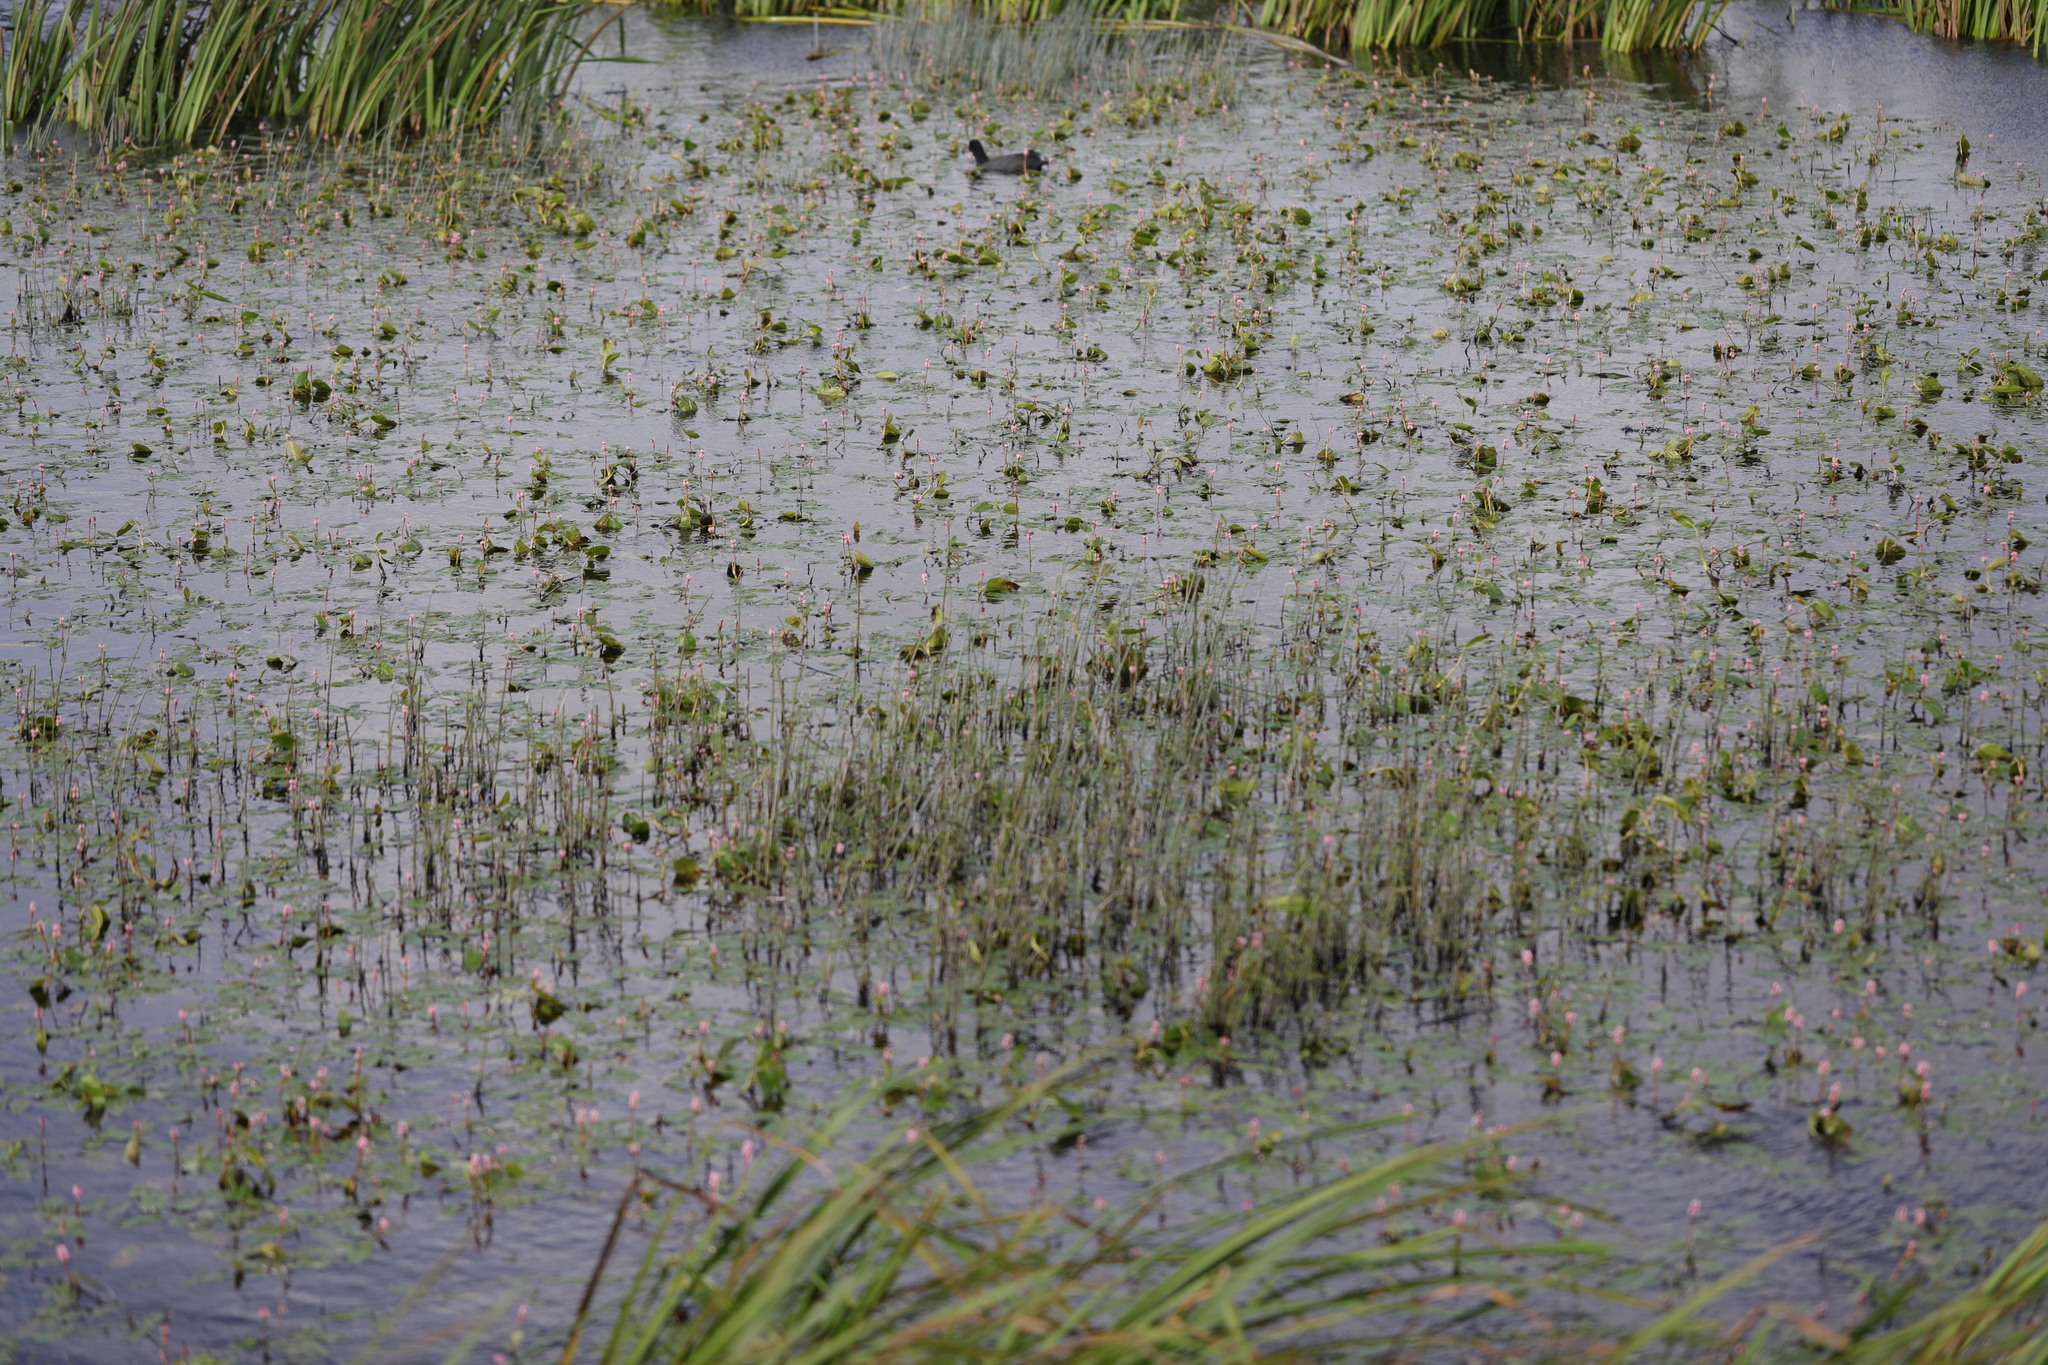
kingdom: Plantae
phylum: Tracheophyta
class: Magnoliopsida
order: Caryophyllales
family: Polygonaceae
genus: Persicaria
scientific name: Persicaria amphibia
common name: Amphibious bistort
